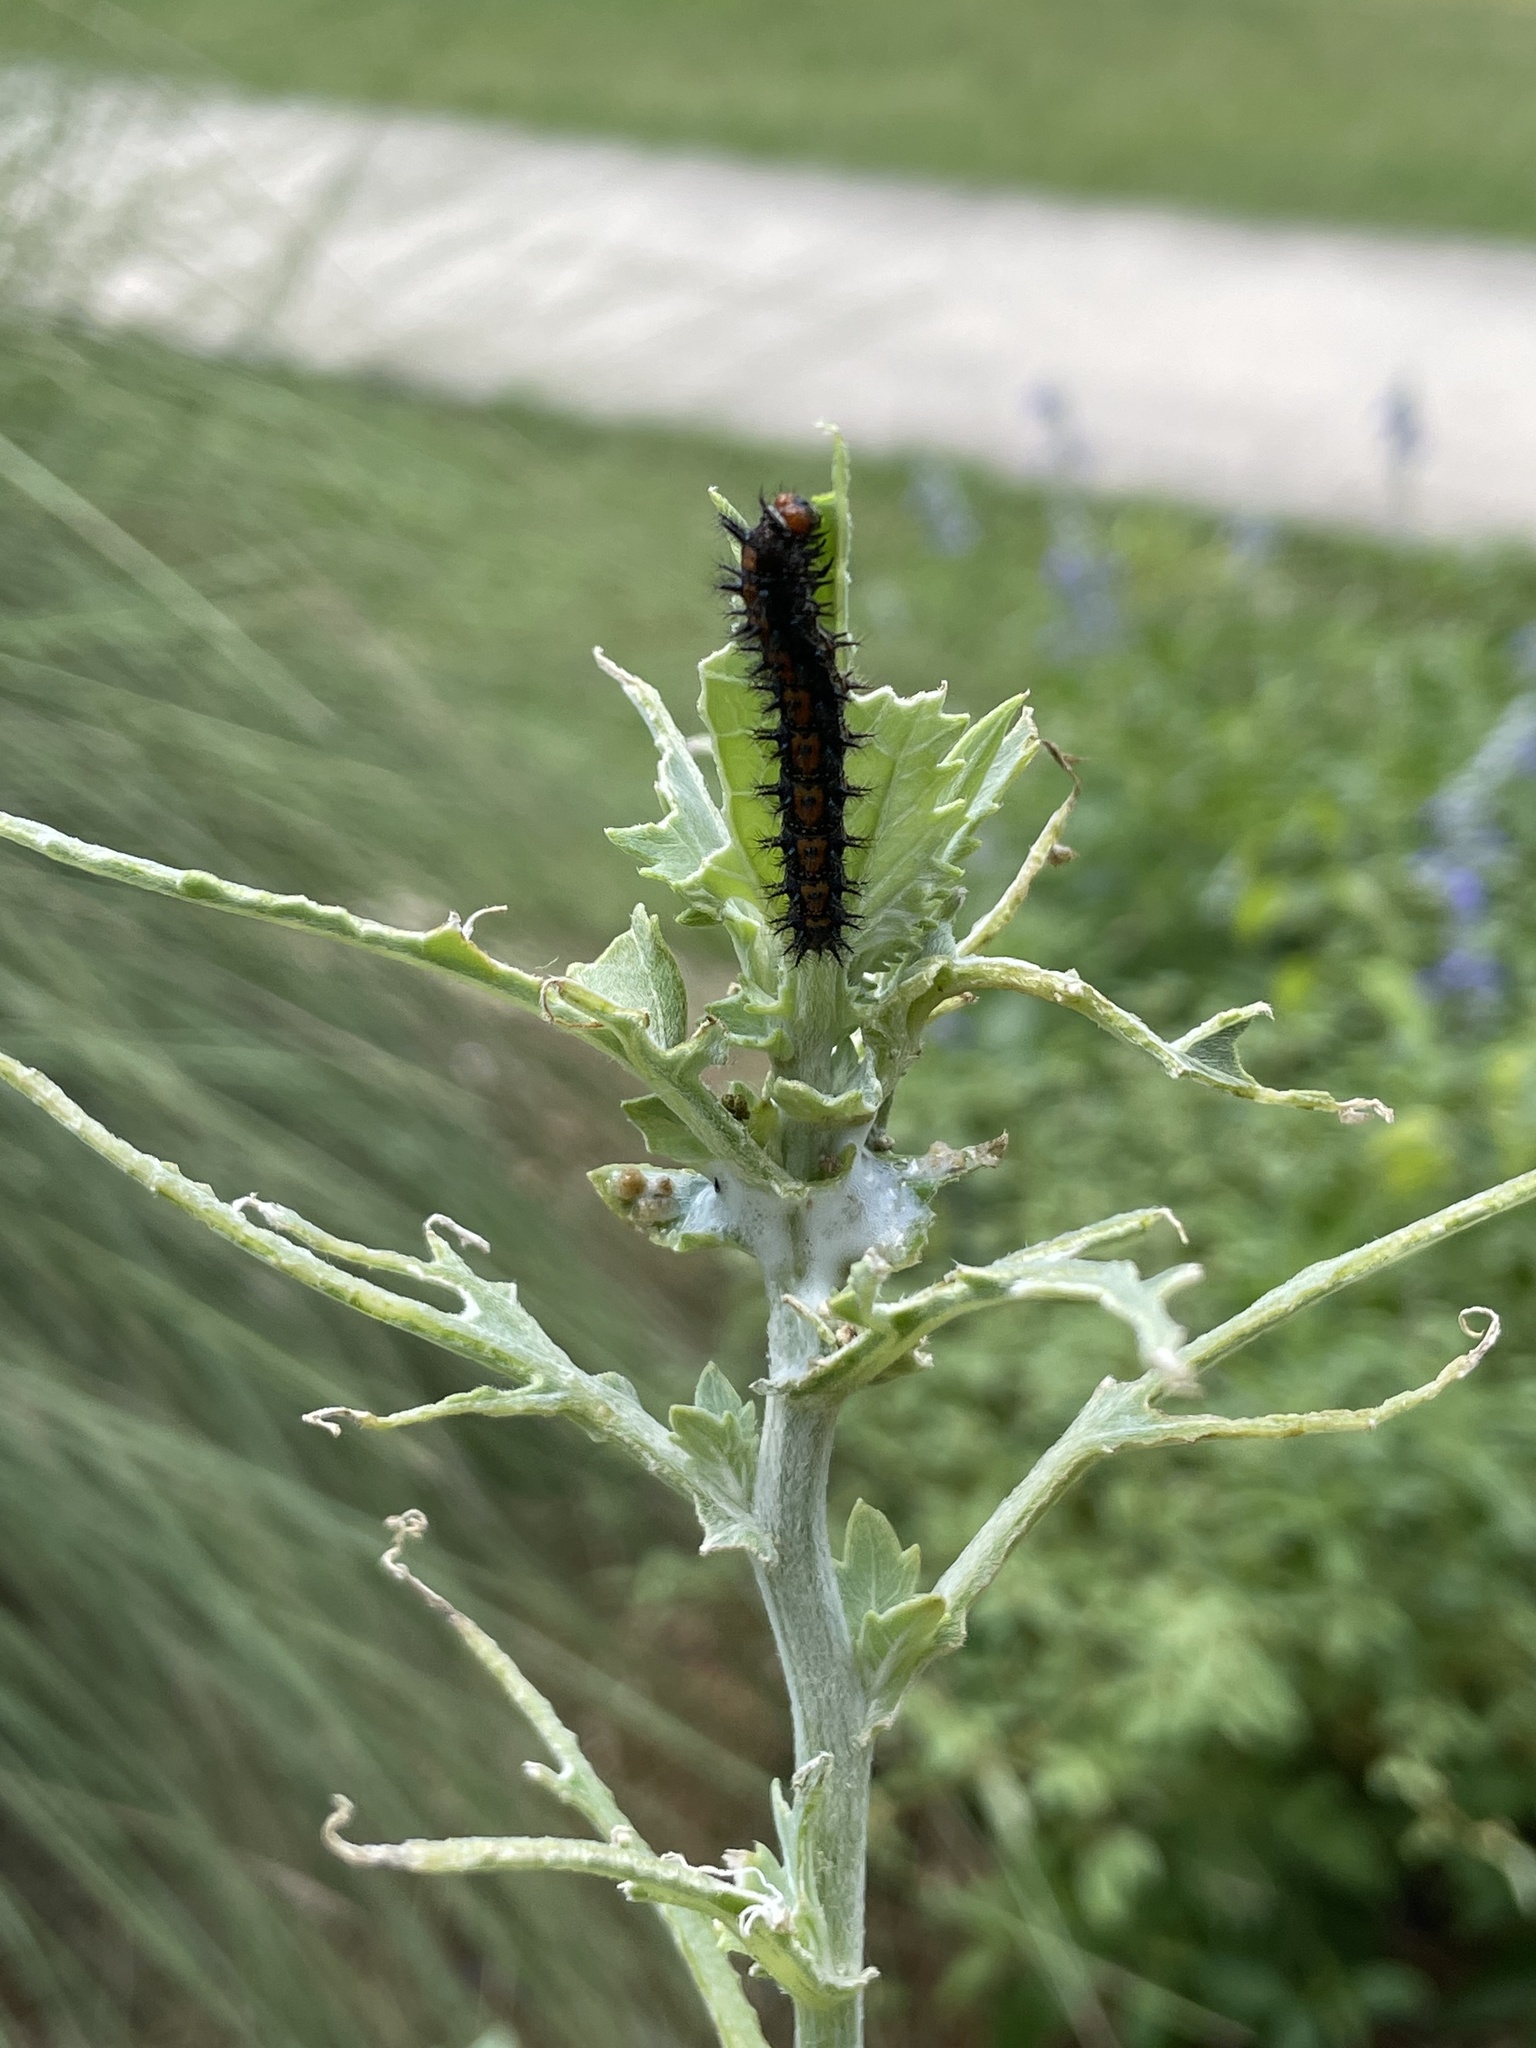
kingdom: Animalia
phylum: Arthropoda
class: Insecta
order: Lepidoptera
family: Nymphalidae
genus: Chlosyne
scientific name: Chlosyne lacinia
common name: Bordered patch
